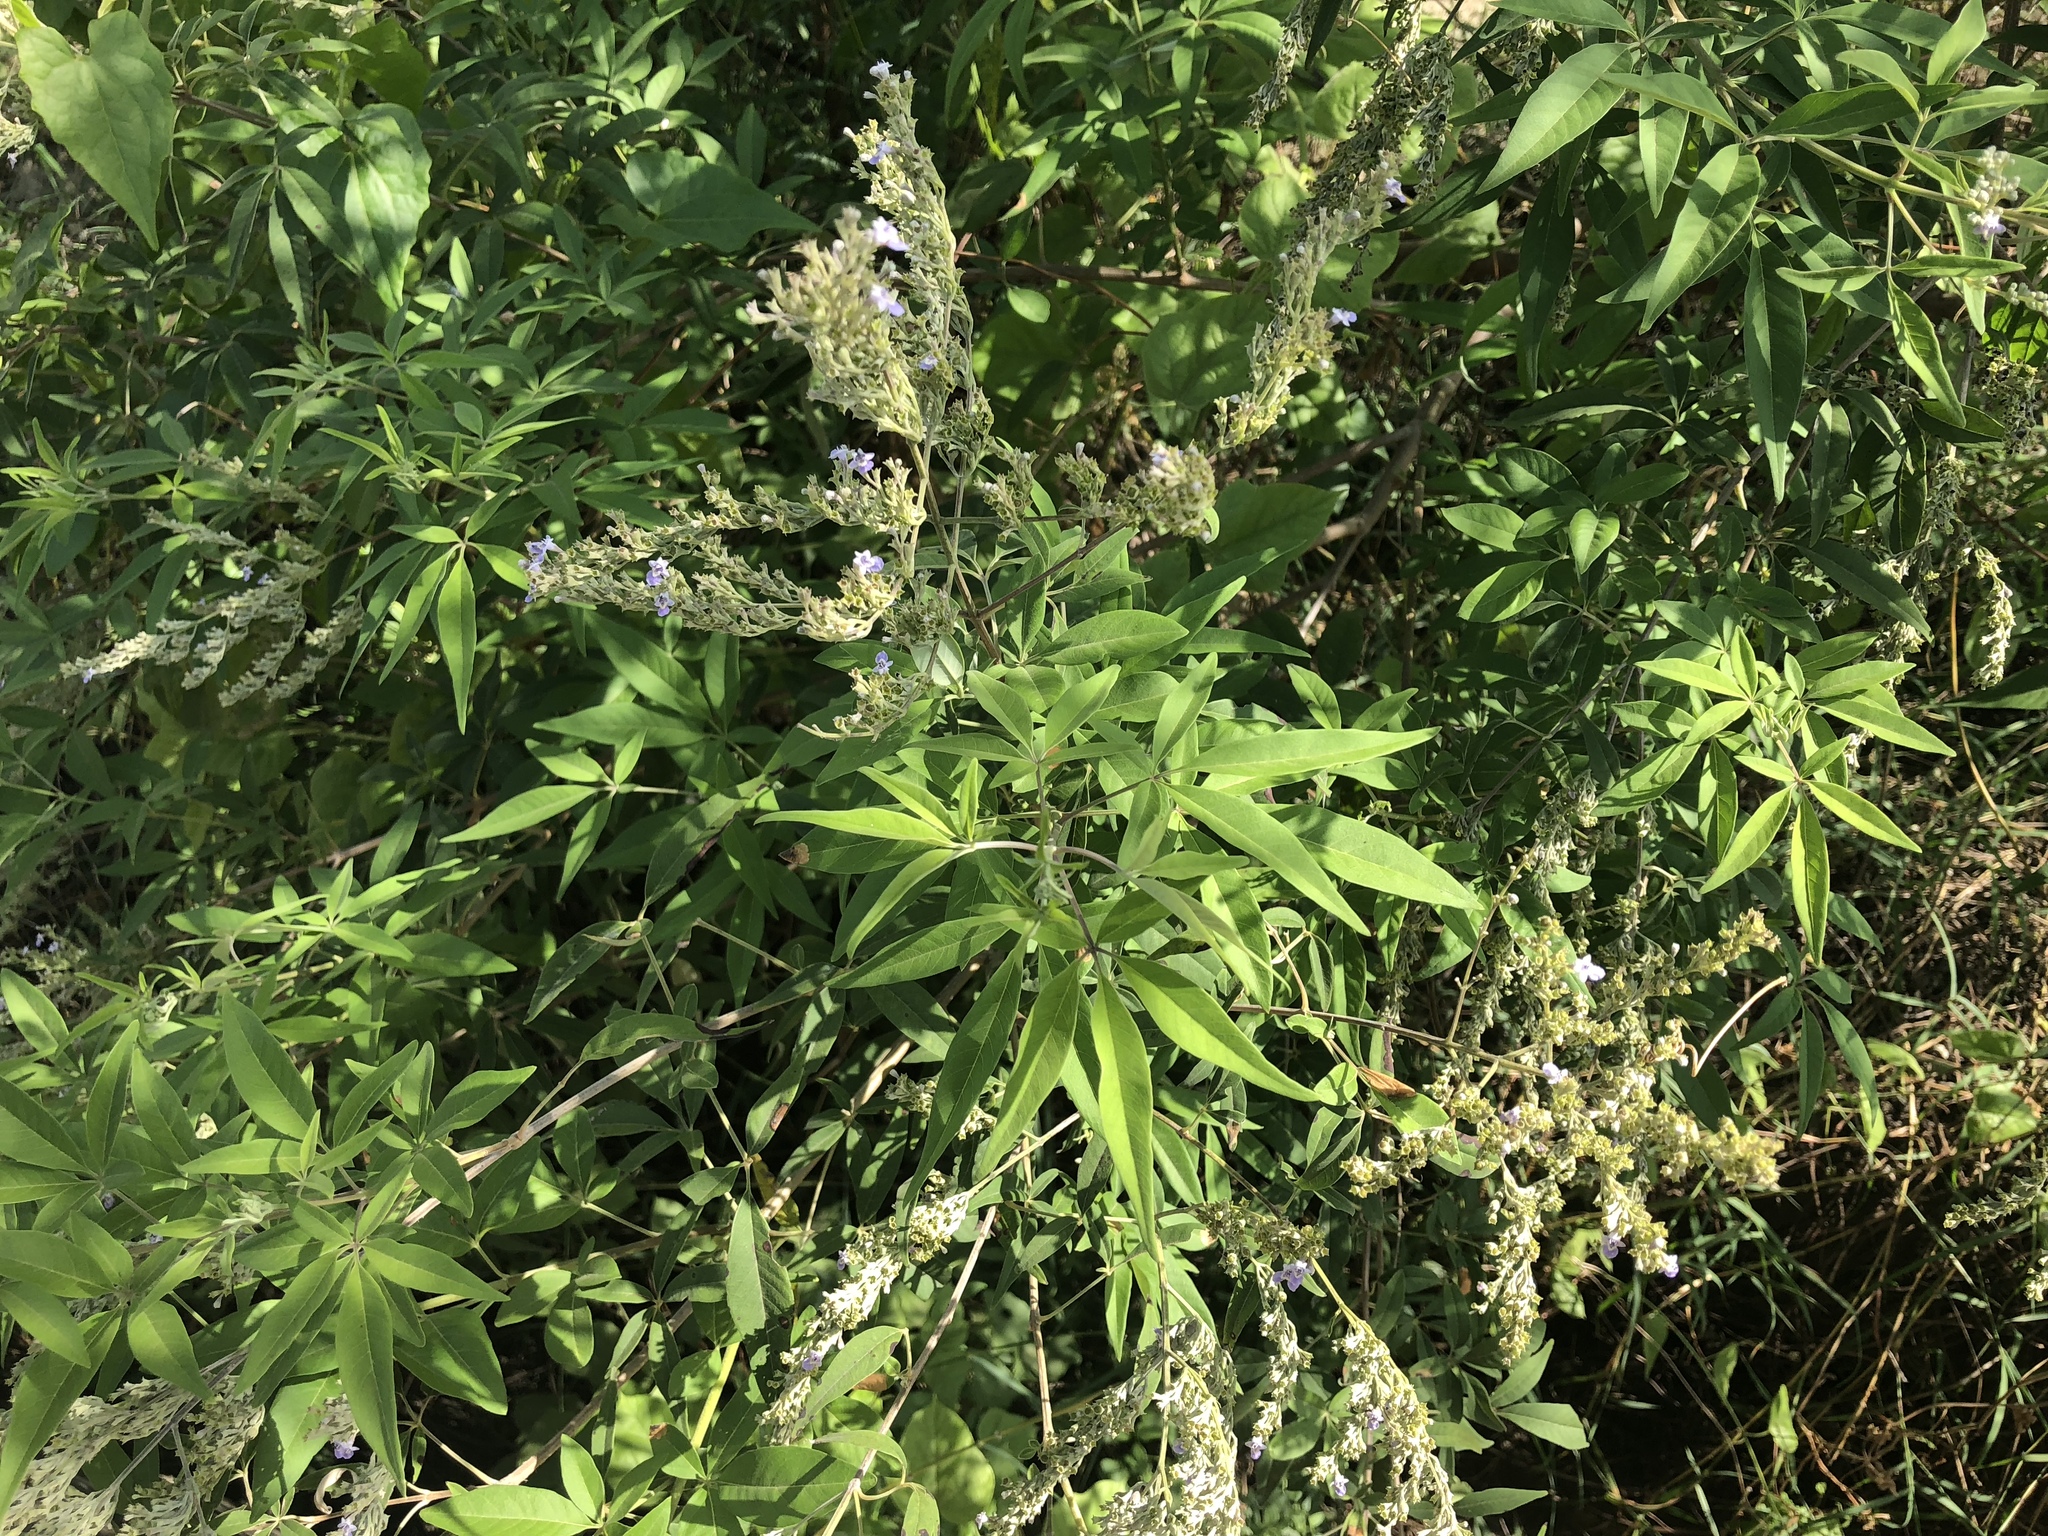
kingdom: Plantae
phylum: Tracheophyta
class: Magnoliopsida
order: Lamiales
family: Lamiaceae
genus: Vitex
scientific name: Vitex negundo
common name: Chinese chastetree
